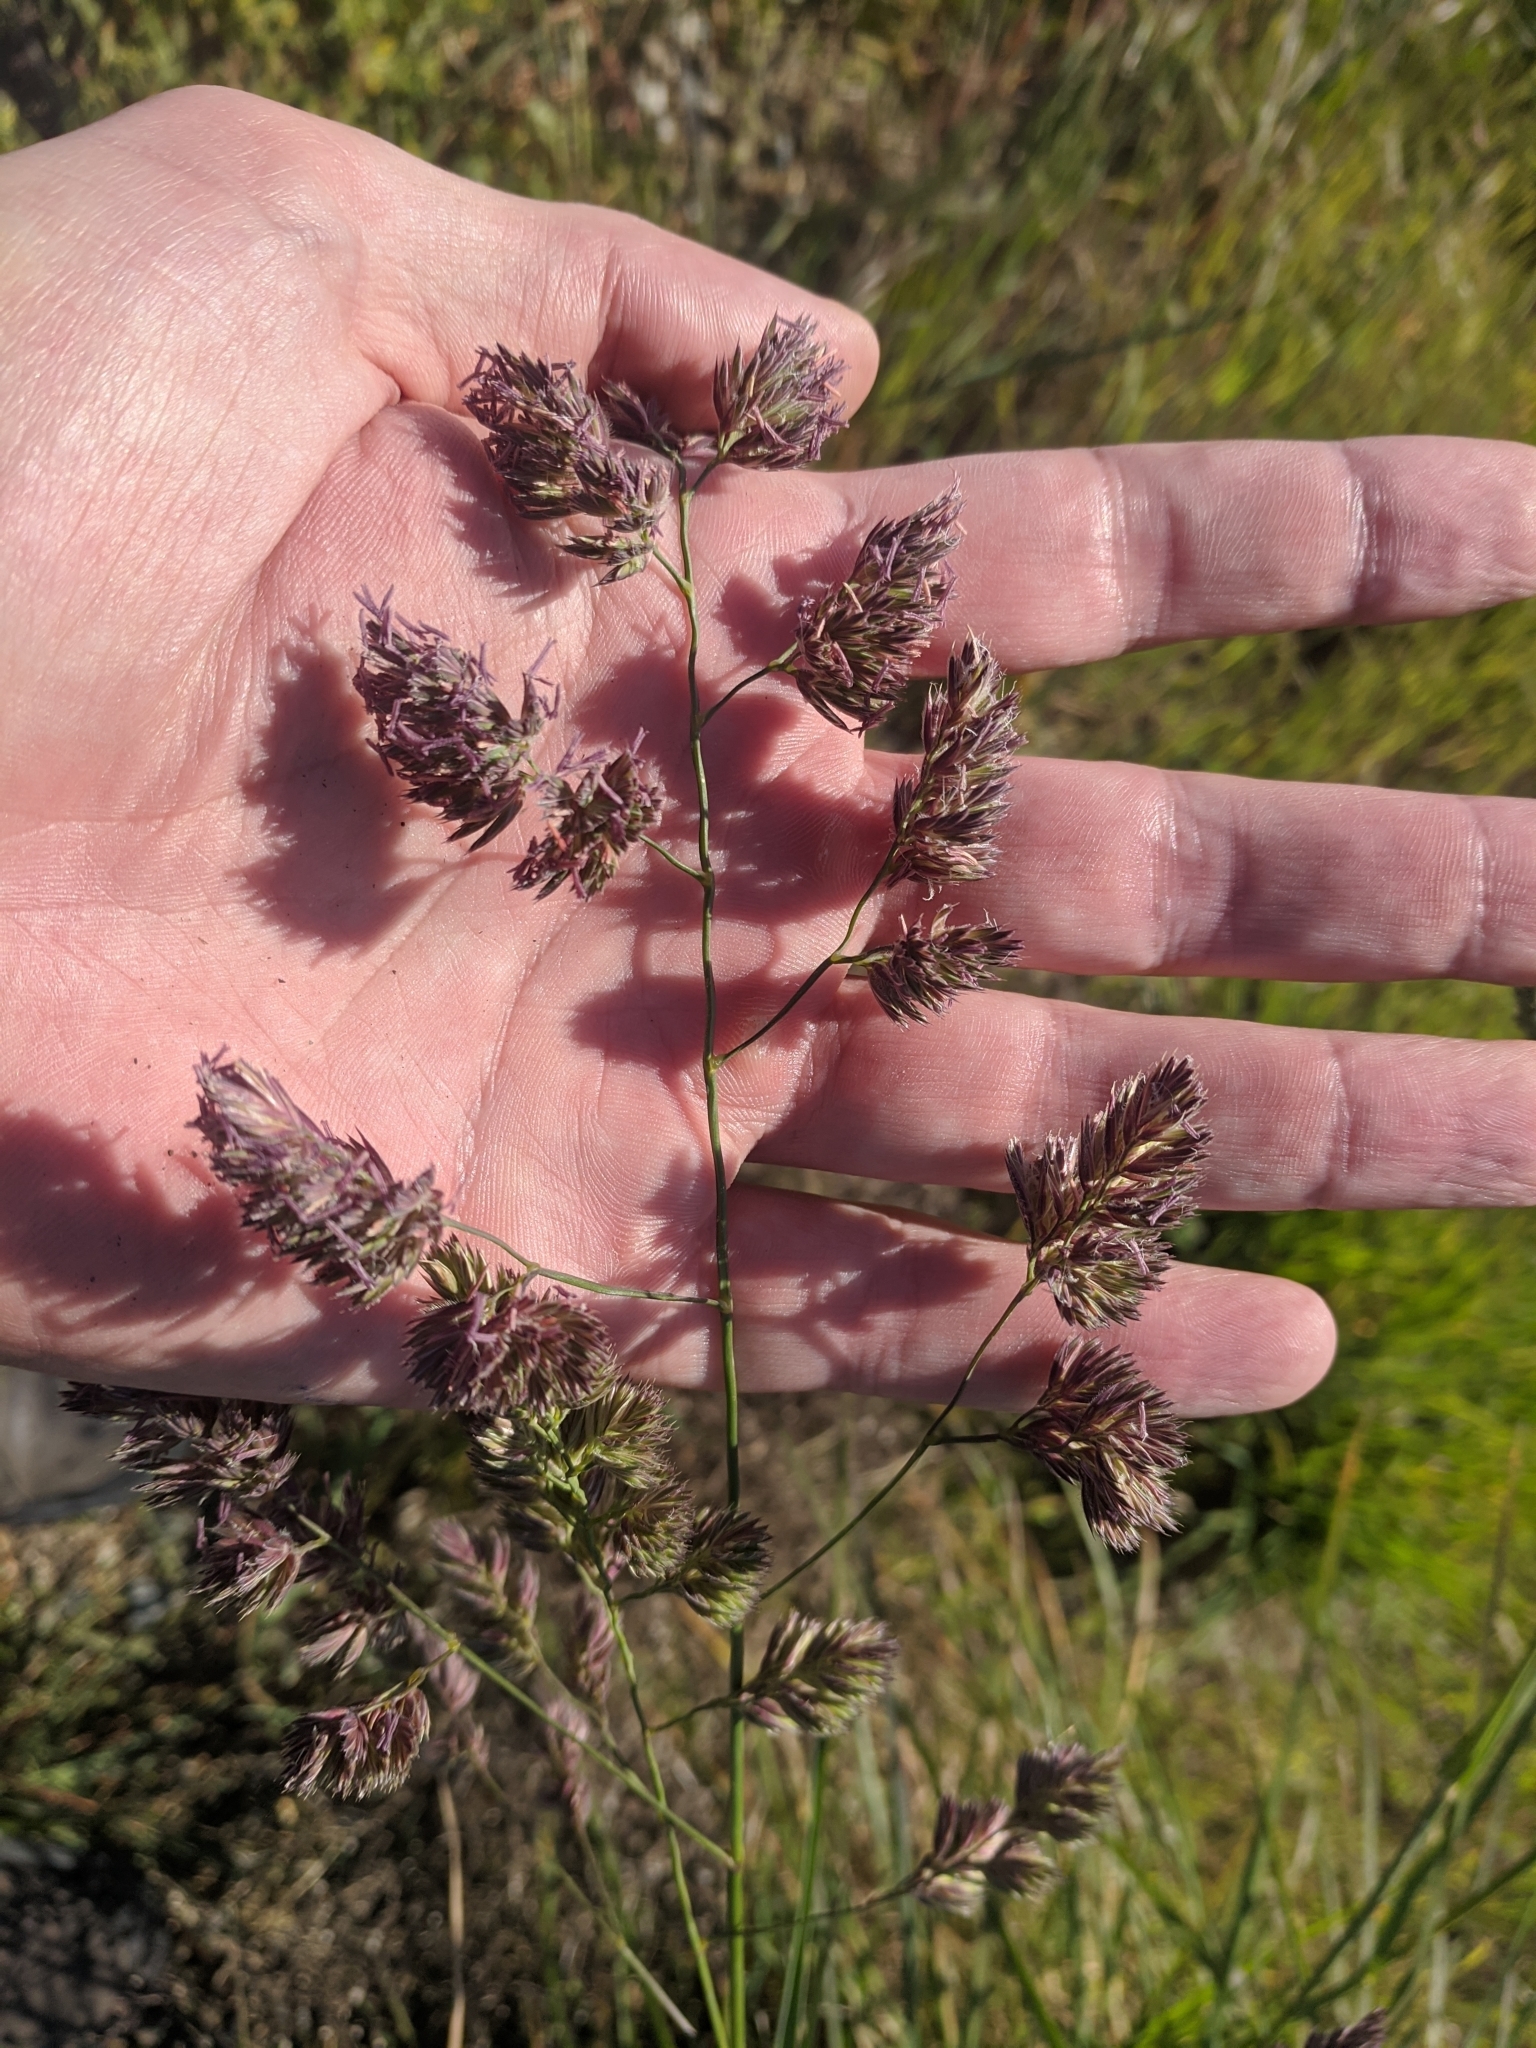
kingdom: Plantae
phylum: Tracheophyta
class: Liliopsida
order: Poales
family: Poaceae
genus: Dactylis
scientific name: Dactylis glomerata
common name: Orchardgrass
